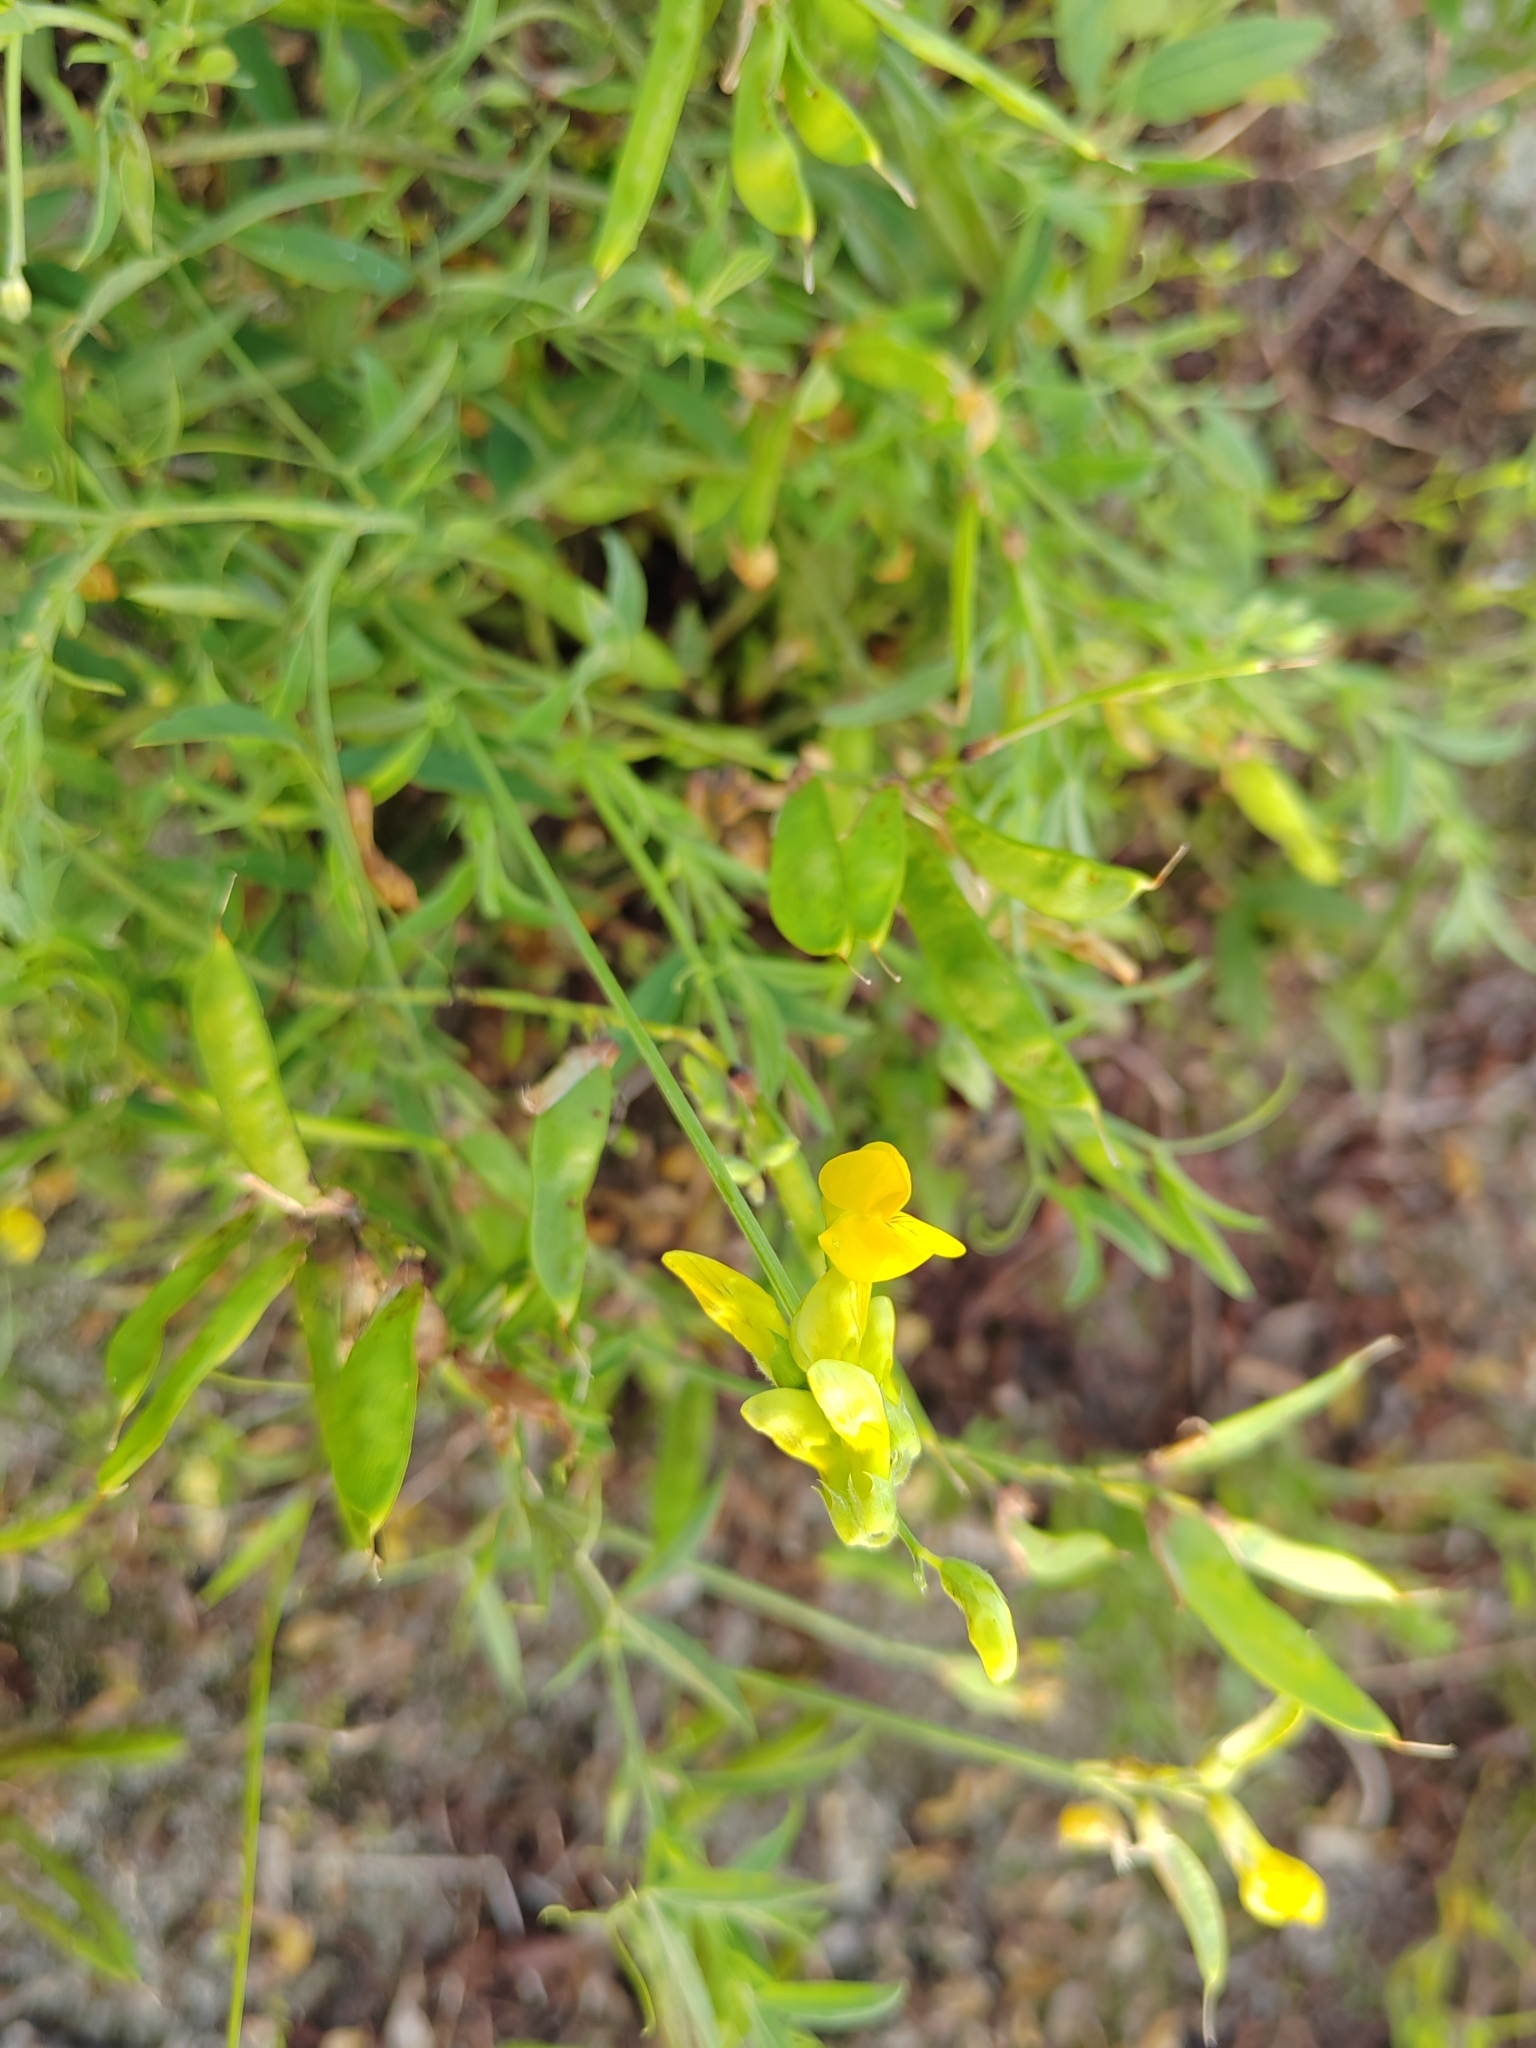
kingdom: Plantae
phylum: Tracheophyta
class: Magnoliopsida
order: Fabales
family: Fabaceae
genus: Lathyrus
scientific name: Lathyrus pratensis
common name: Meadow vetchling
